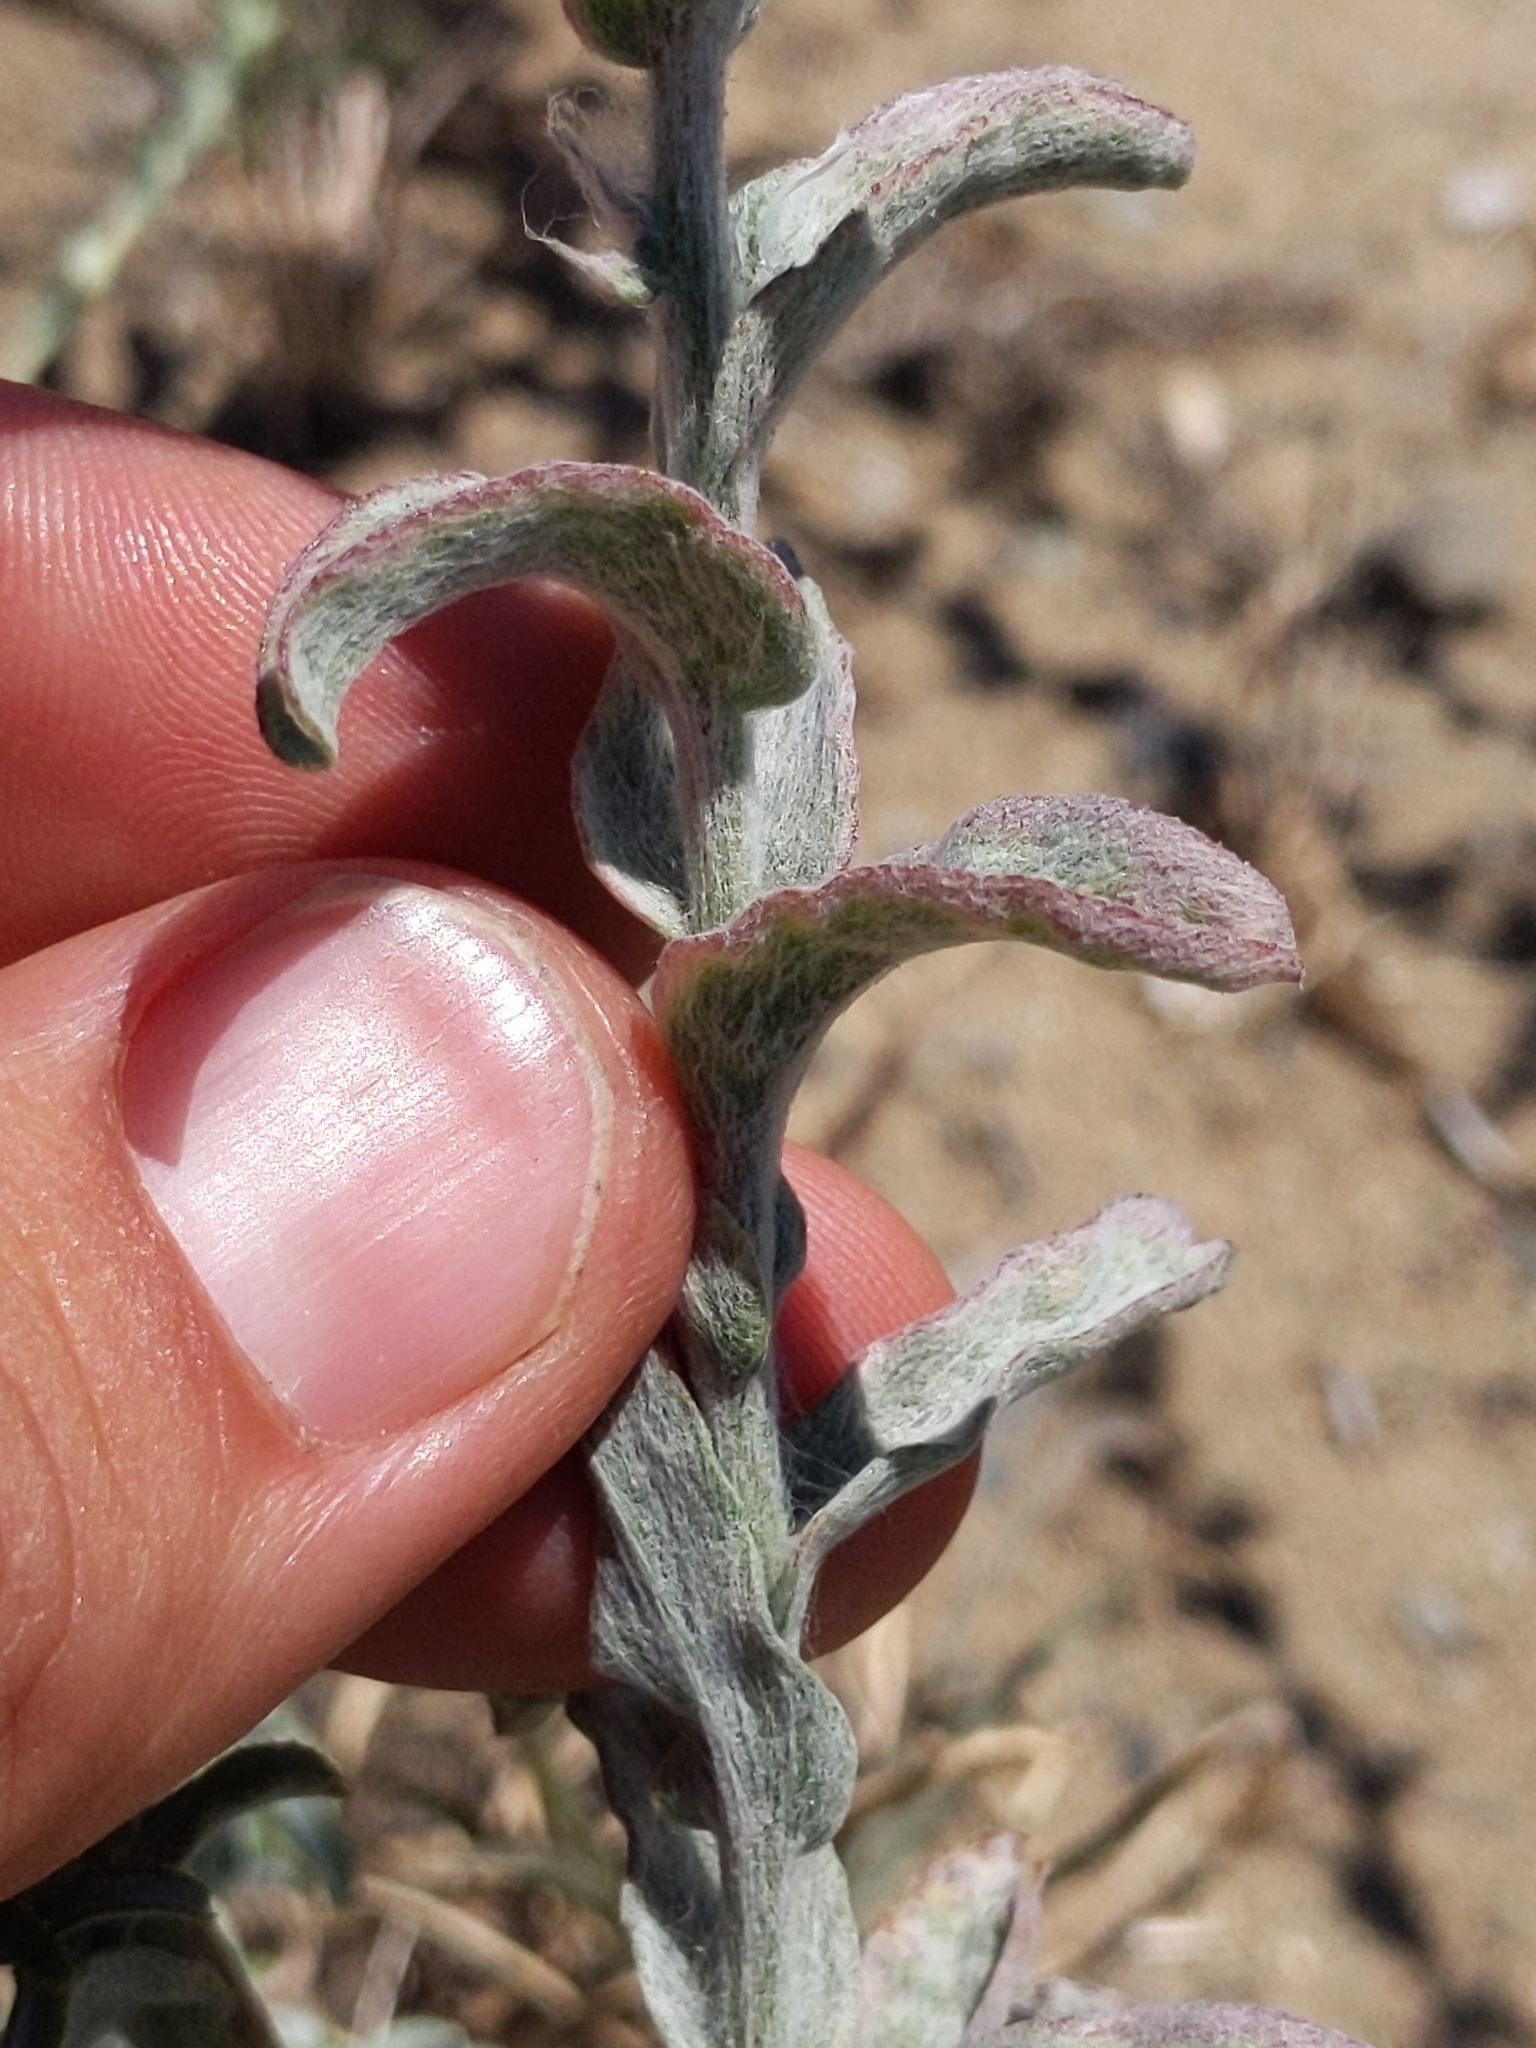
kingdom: Plantae
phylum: Tracheophyta
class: Magnoliopsida
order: Asterales
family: Asteraceae
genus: Lessingia
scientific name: Lessingia pectinata
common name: Valley lessingia
